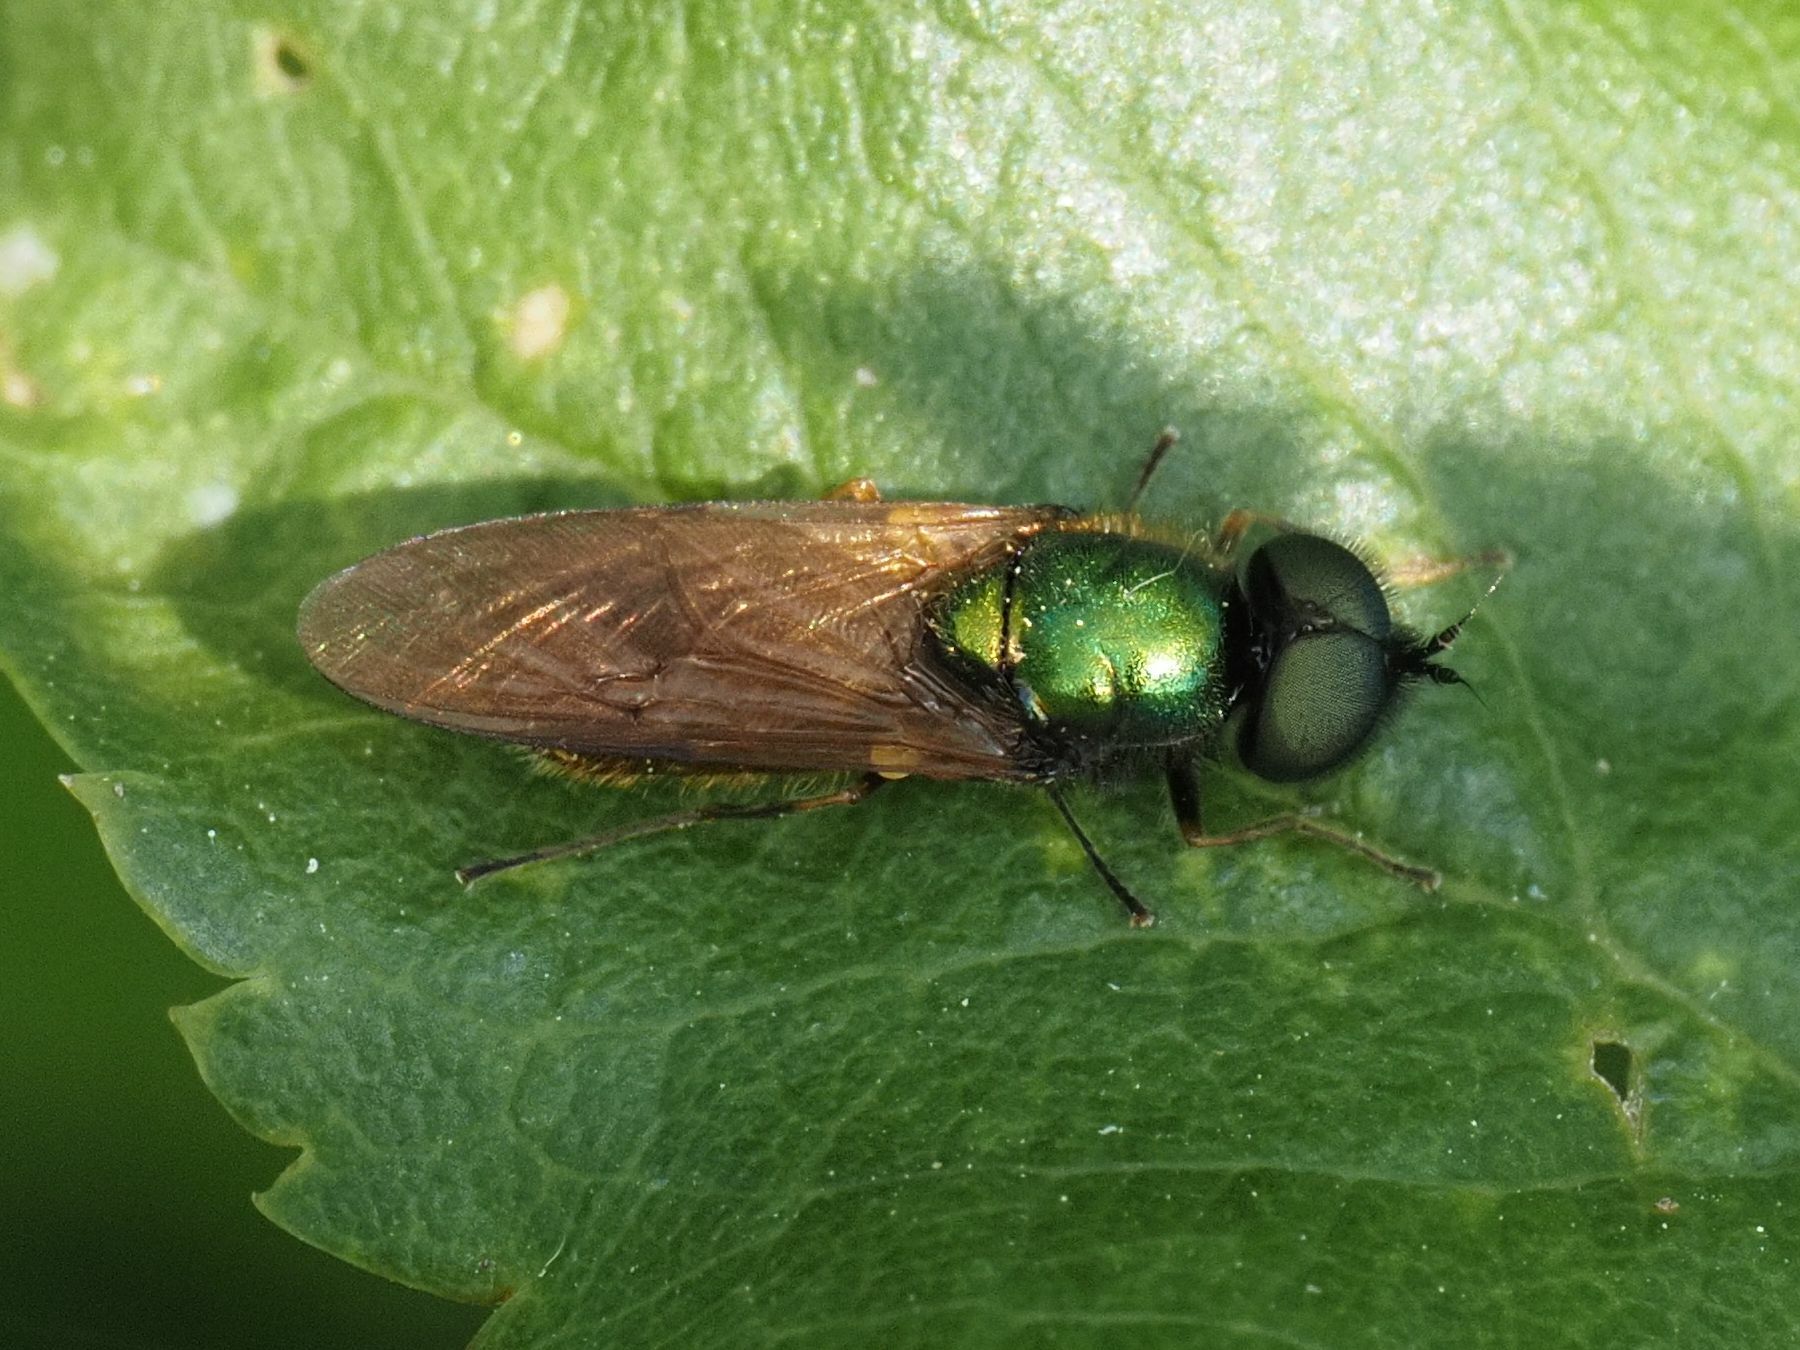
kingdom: Animalia
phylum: Arthropoda
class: Insecta
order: Diptera
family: Stratiomyidae
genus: Chloromyia
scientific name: Chloromyia formosa
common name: Soldier fly
